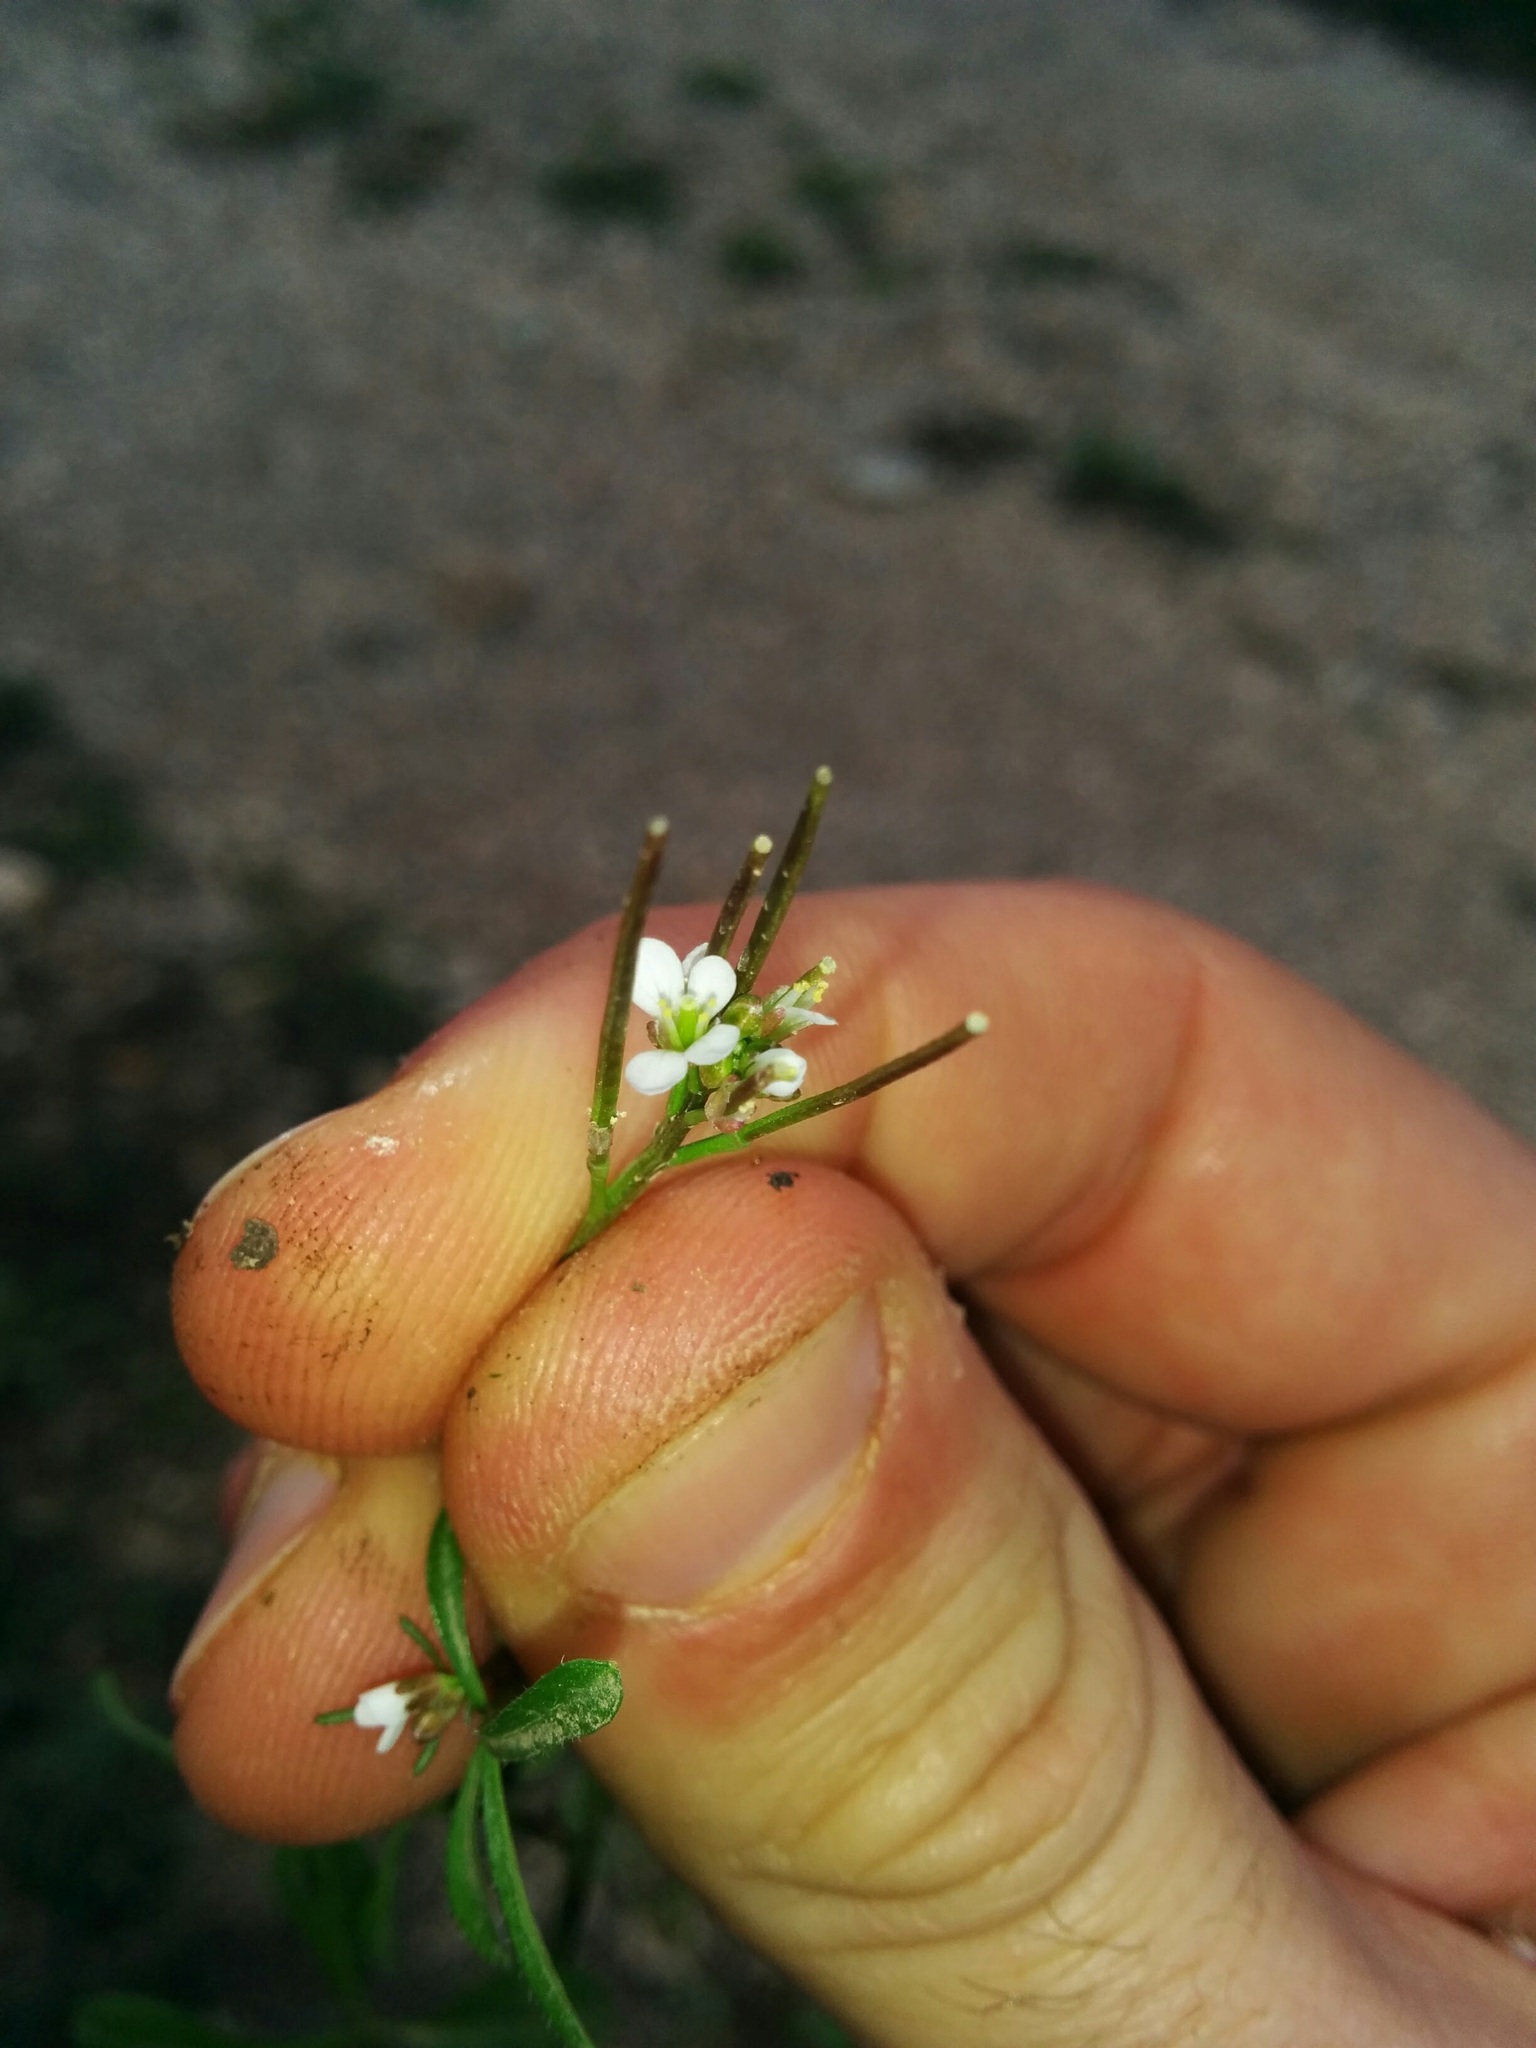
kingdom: Plantae
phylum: Tracheophyta
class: Magnoliopsida
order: Brassicales
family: Brassicaceae
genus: Cardamine
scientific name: Cardamine hirsuta
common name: Hairy bittercress
